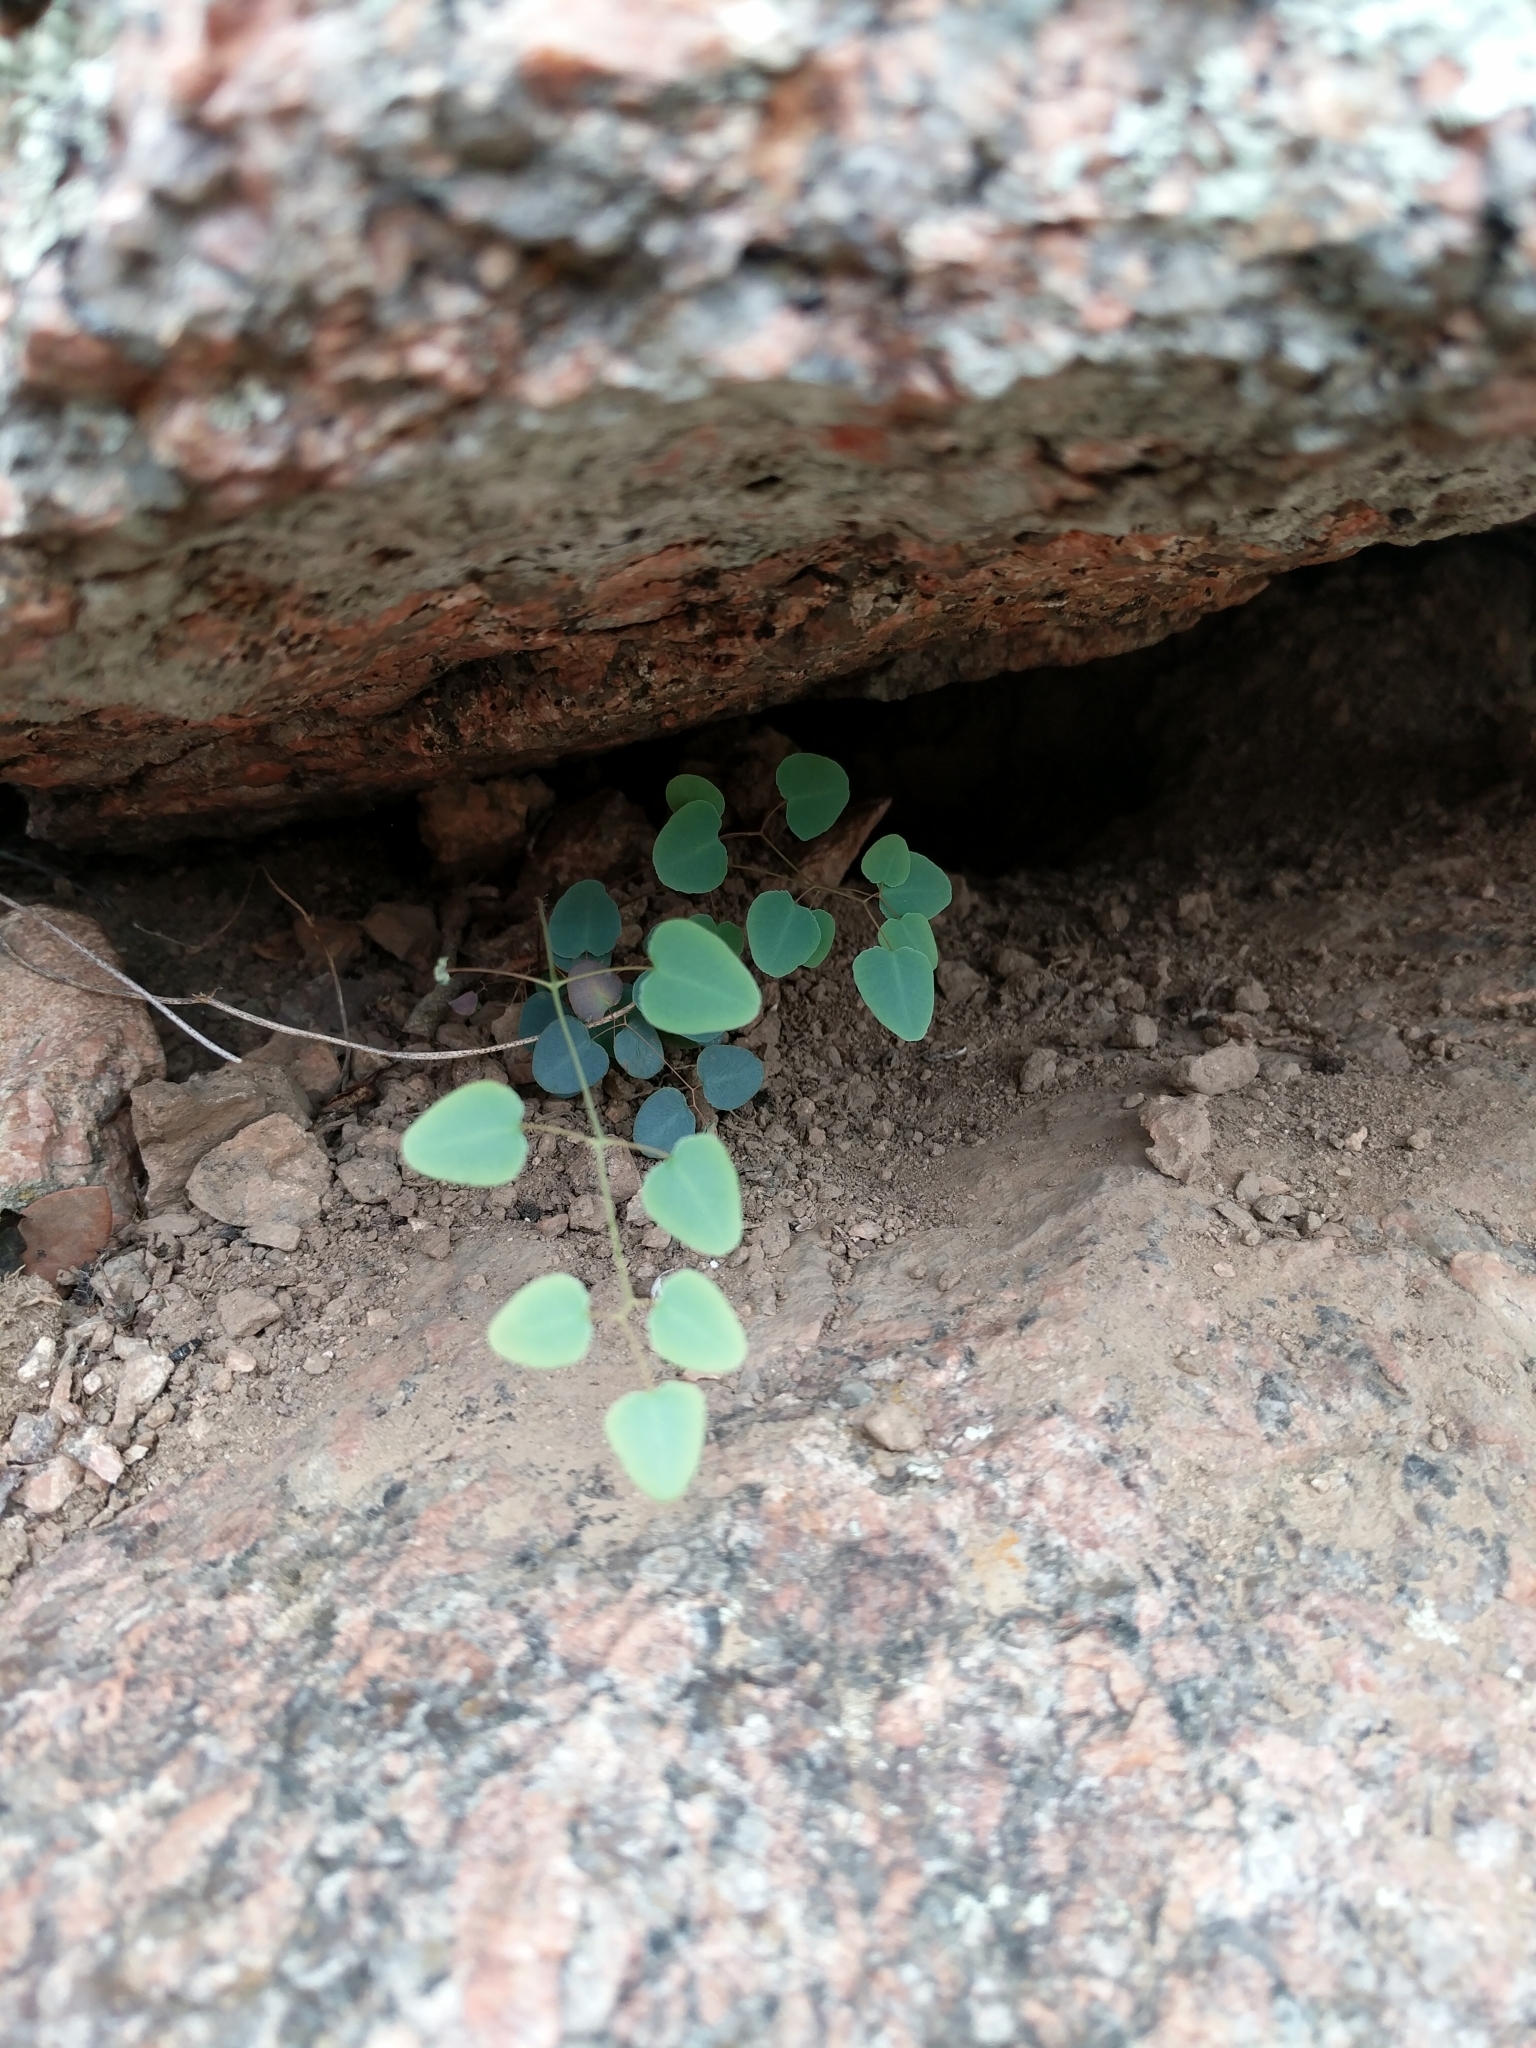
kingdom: Plantae
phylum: Tracheophyta
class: Polypodiopsida
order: Polypodiales
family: Pteridaceae
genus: Pellaea
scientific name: Pellaea ovata
